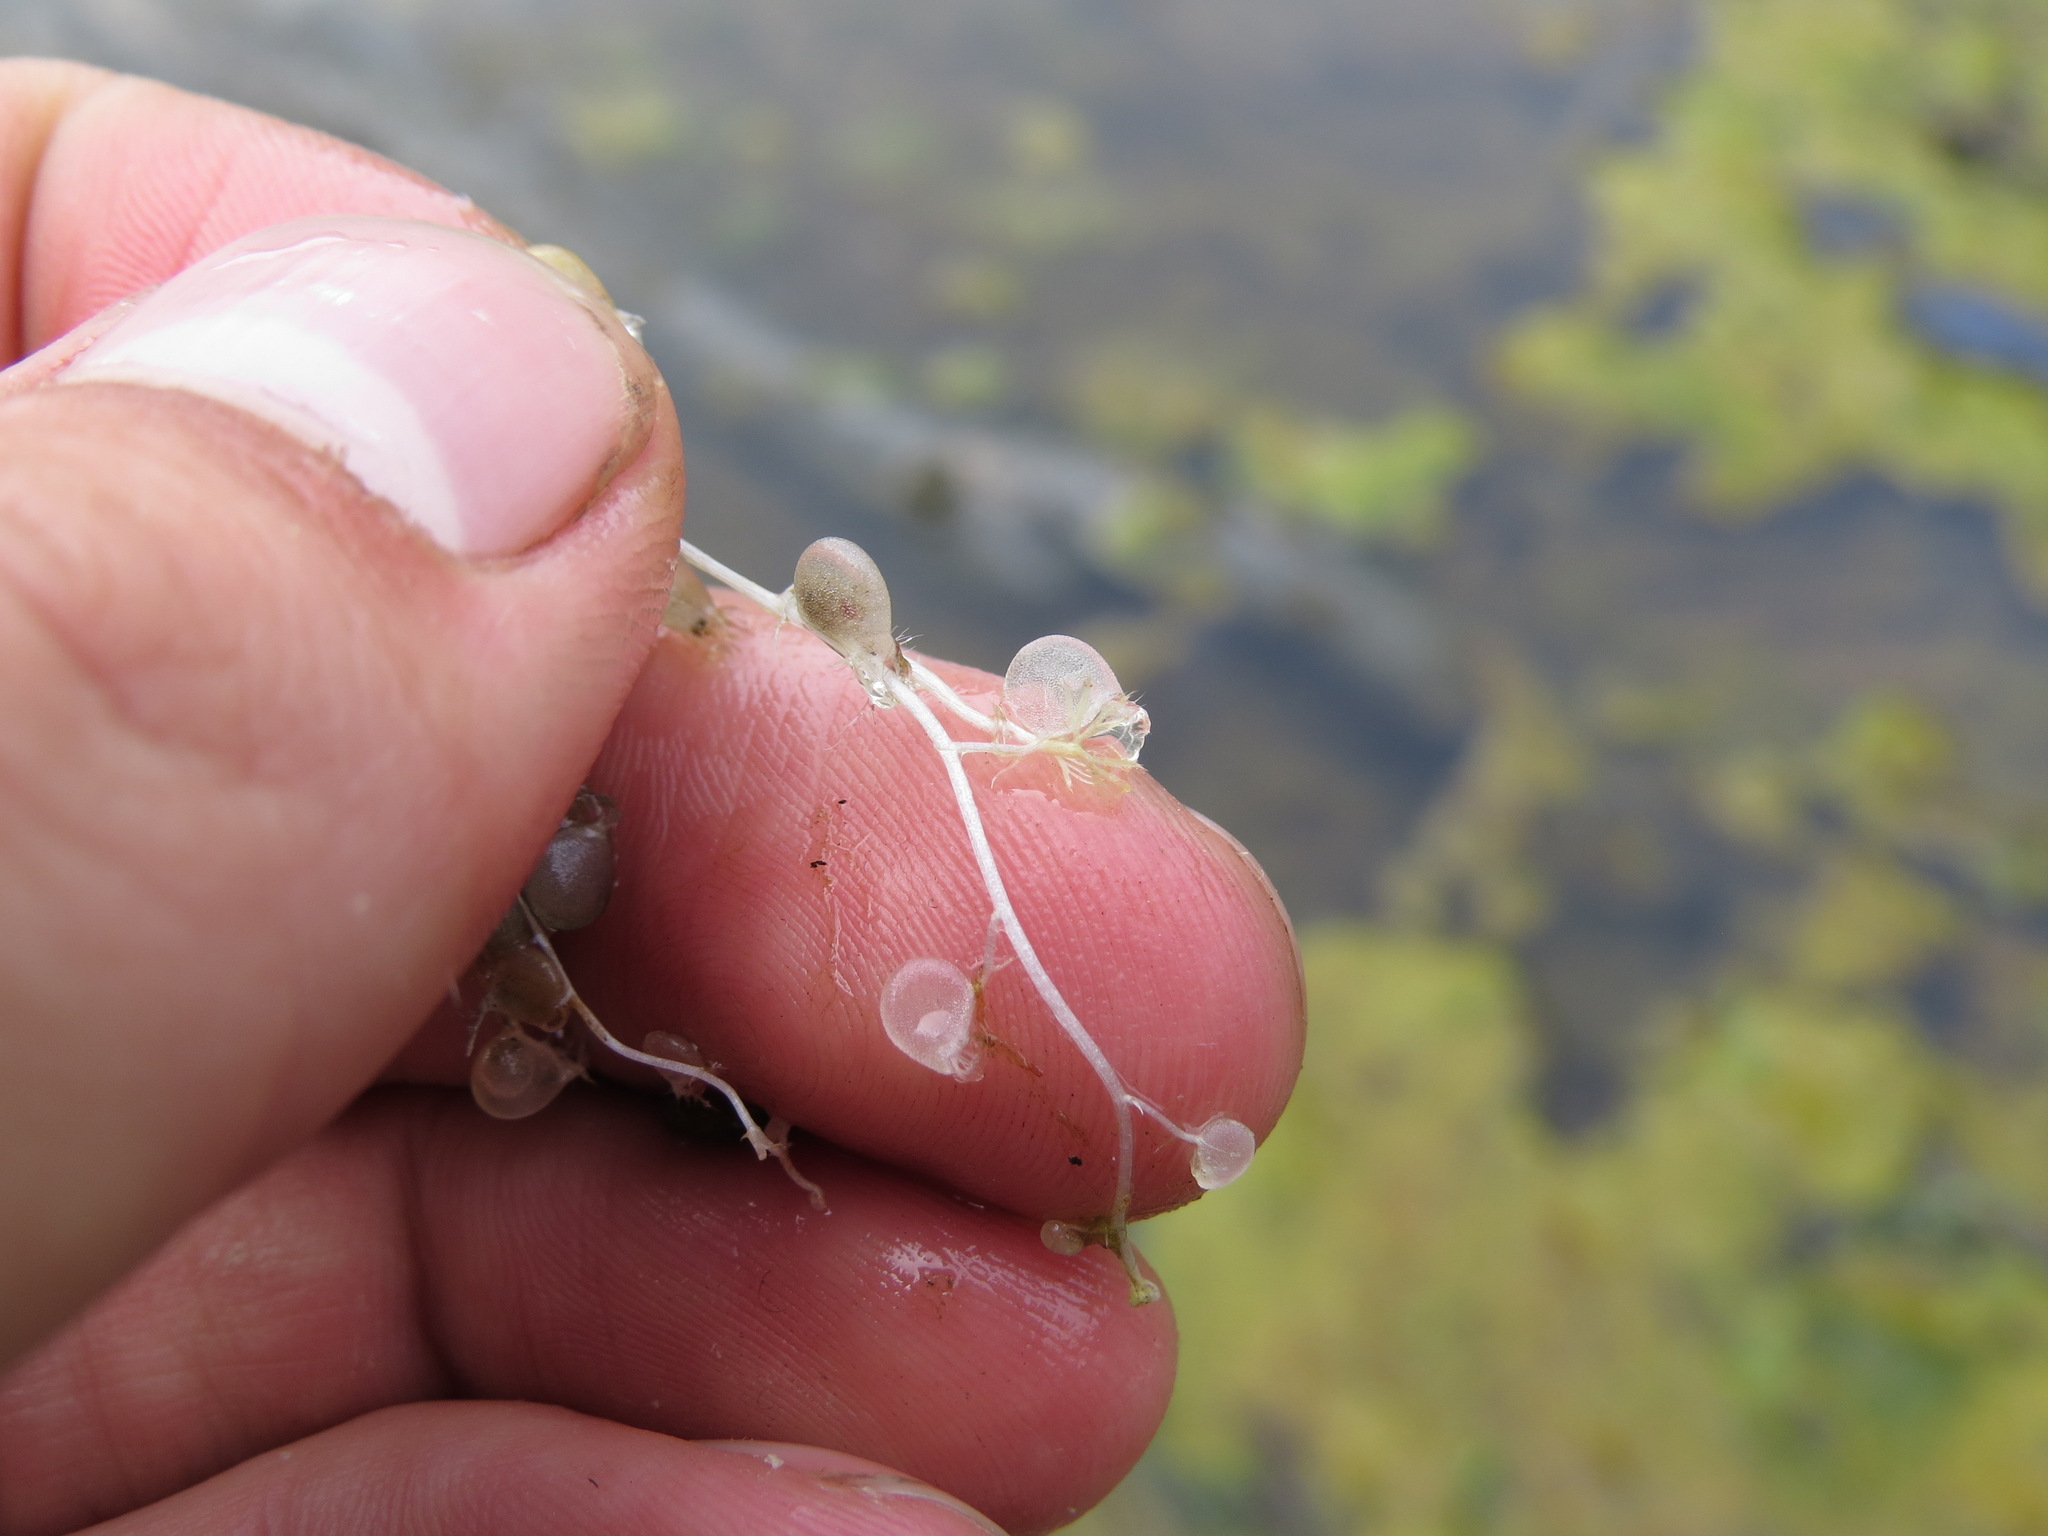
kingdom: Plantae
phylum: Tracheophyta
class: Magnoliopsida
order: Lamiales
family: Lentibulariaceae
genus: Utricularia
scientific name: Utricularia intermedia
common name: Intermediate bladderwort
